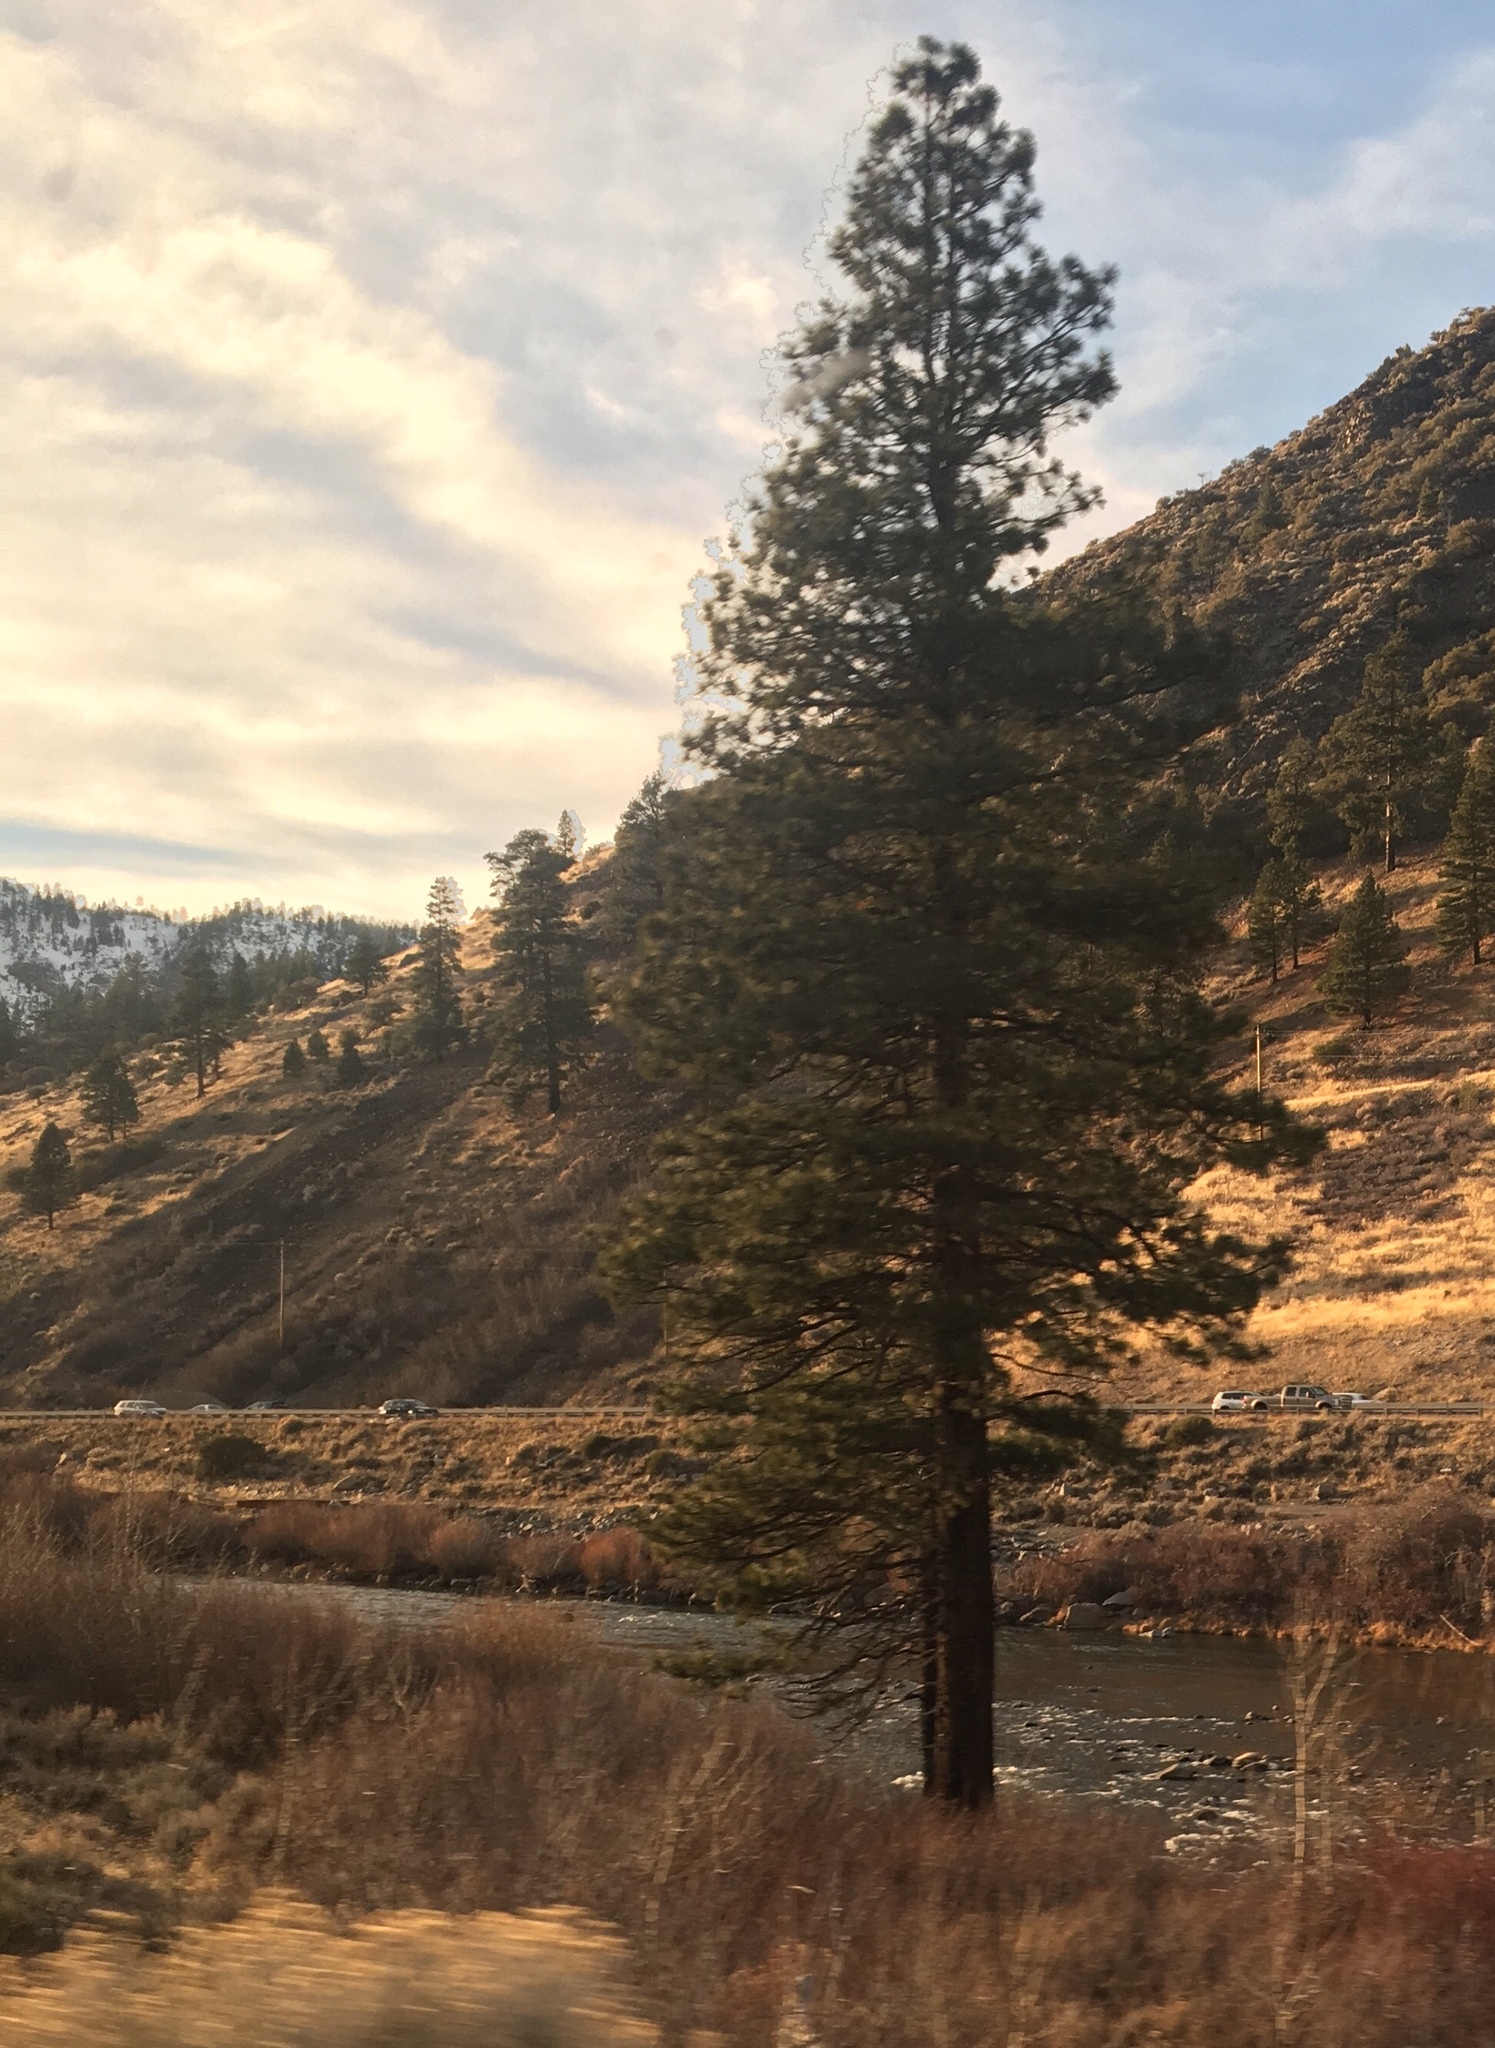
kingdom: Plantae
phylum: Tracheophyta
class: Pinopsida
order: Pinales
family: Pinaceae
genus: Pinus
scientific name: Pinus ponderosa
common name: Western yellow-pine
